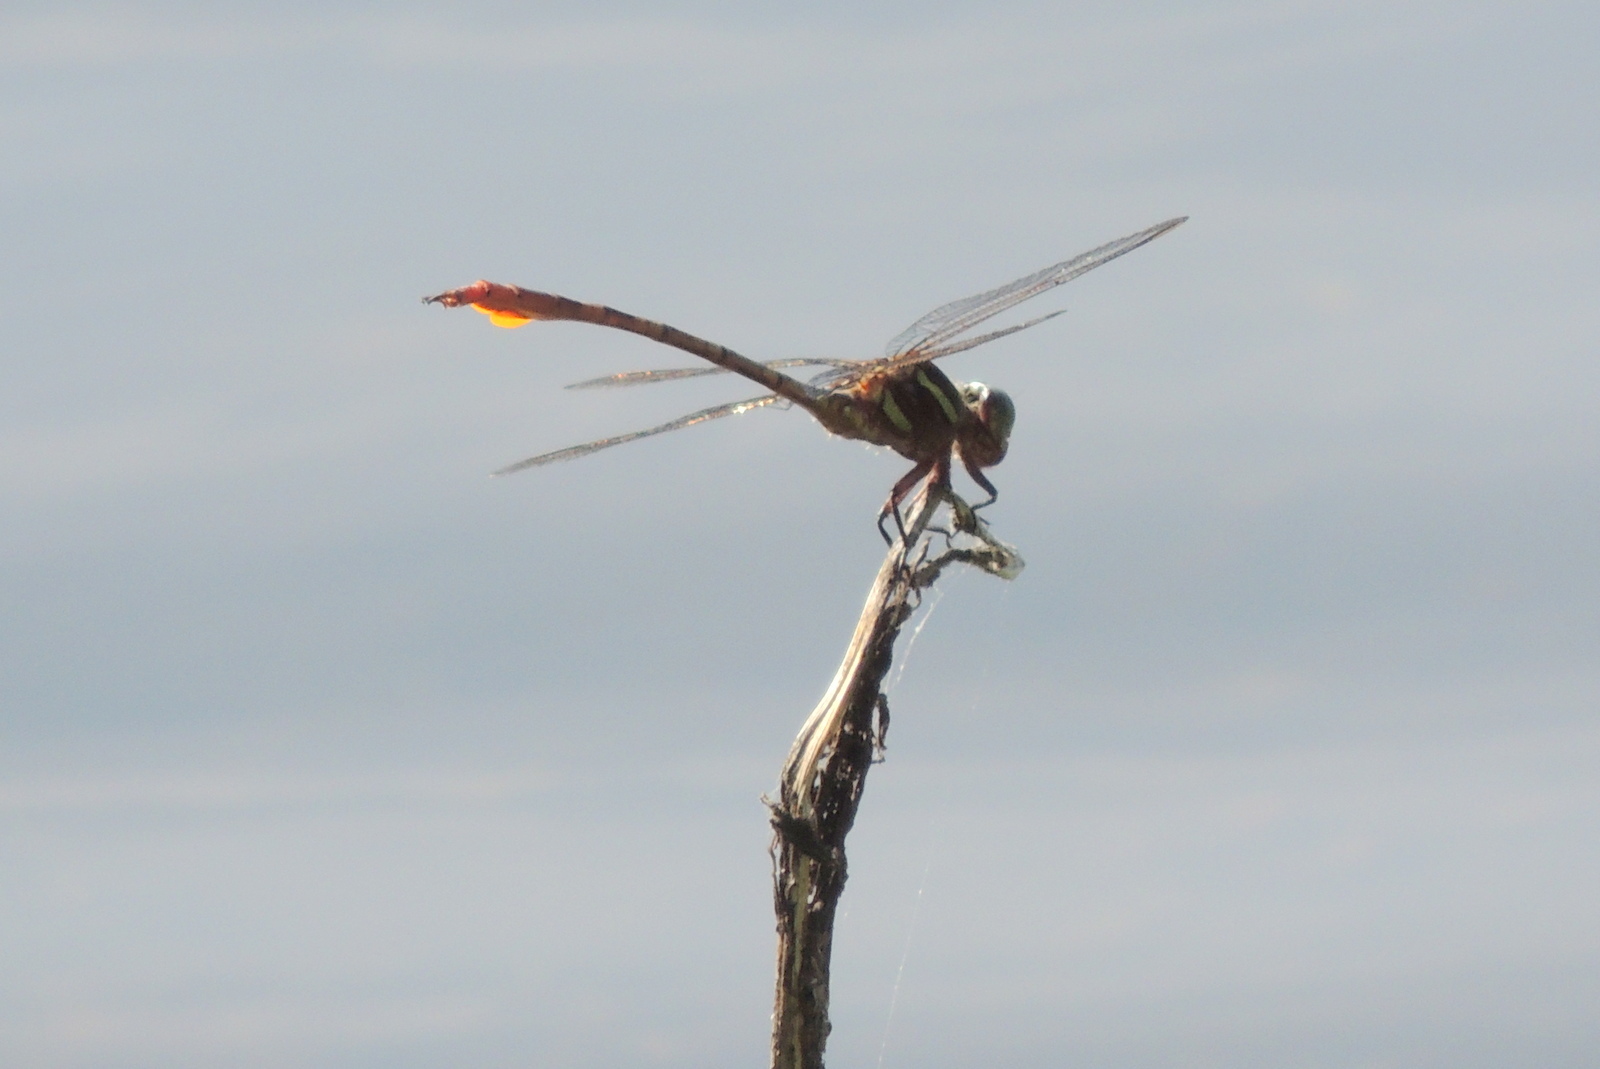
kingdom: Animalia
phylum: Arthropoda
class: Insecta
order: Odonata
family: Gomphidae
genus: Aphylla
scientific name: Aphylla williamsoni
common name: Two-striped forceptail
